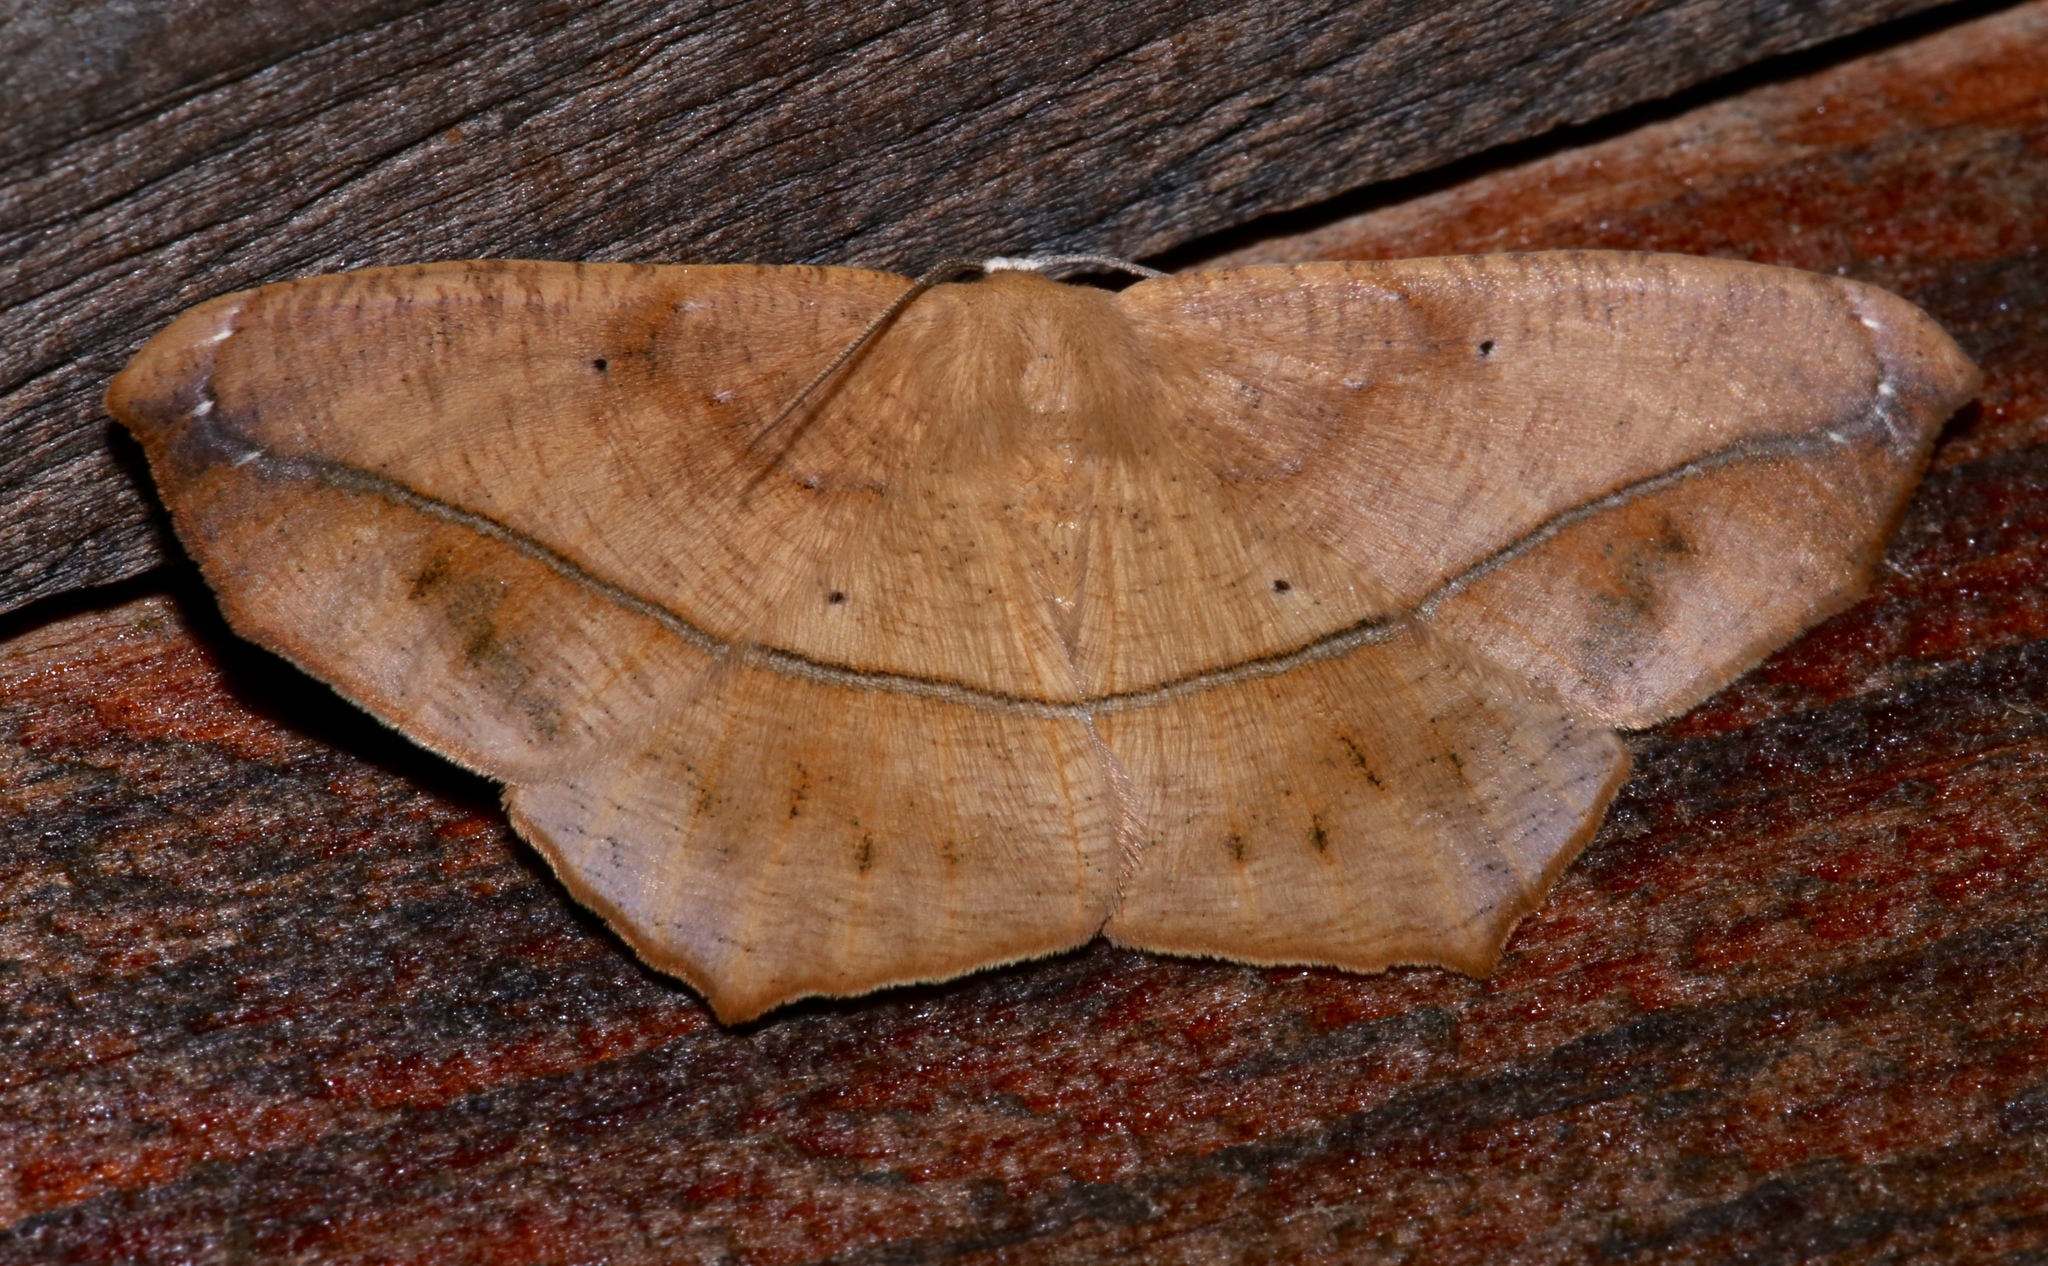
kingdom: Animalia
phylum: Arthropoda
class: Insecta
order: Lepidoptera
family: Geometridae
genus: Prochoerodes
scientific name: Prochoerodes lineola
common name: Large maple spanworm
